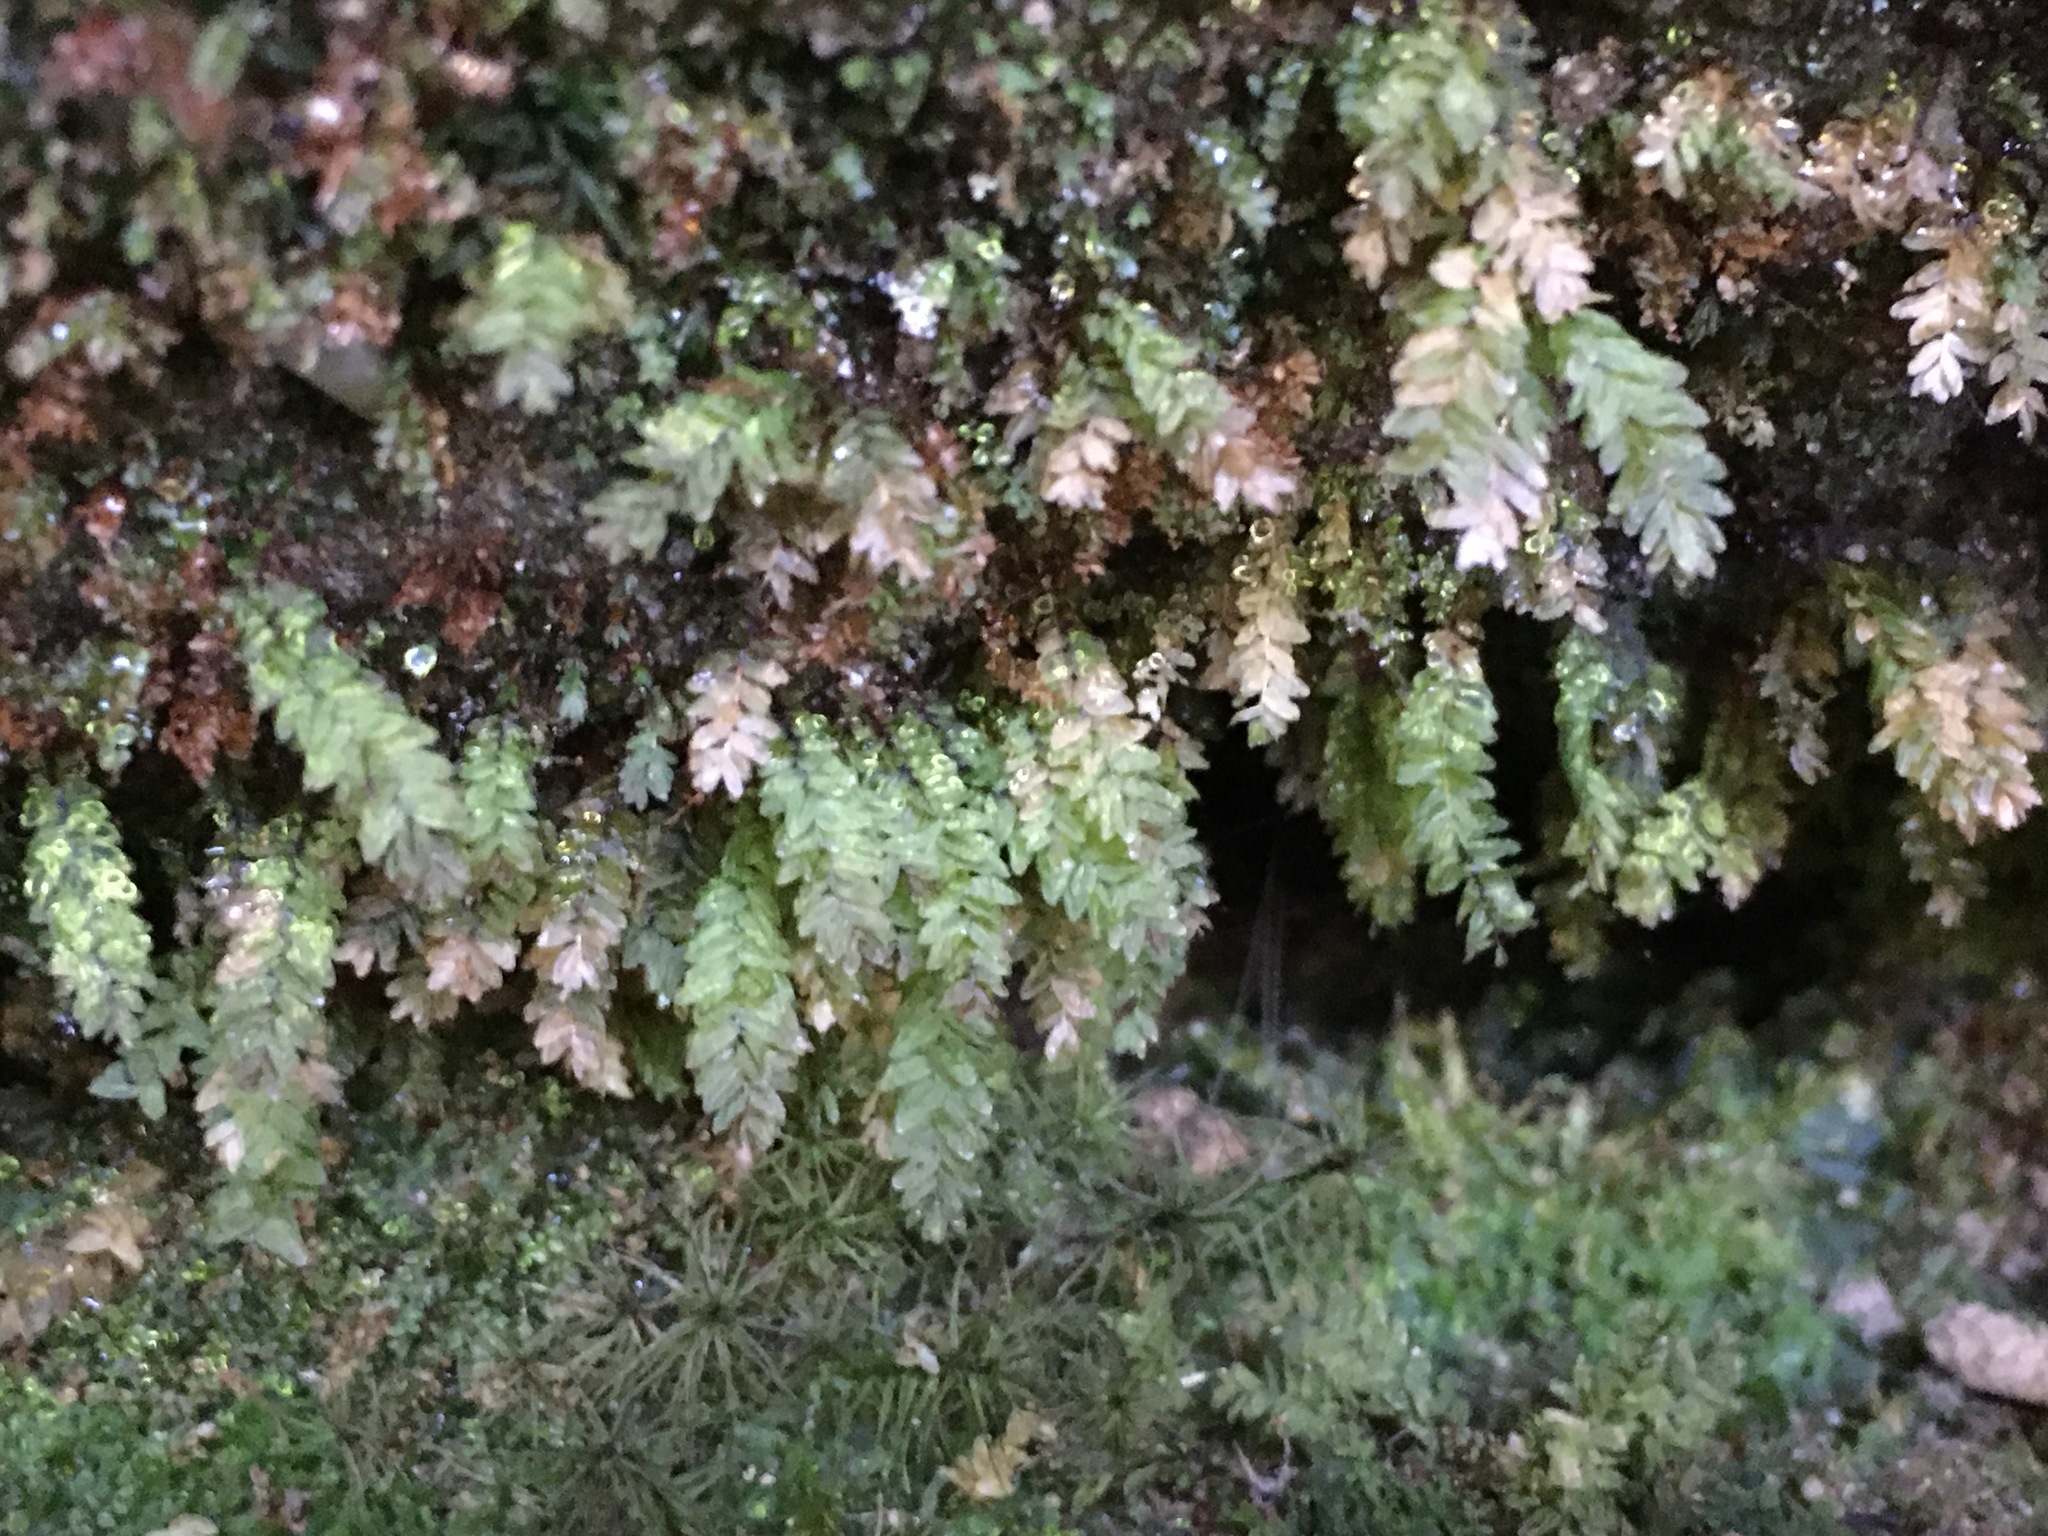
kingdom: Plantae
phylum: Bryophyta
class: Bryopsida
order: Aulacomniales
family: Aulacomniaceae
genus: Aulacomnium
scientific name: Aulacomnium heterostichum
